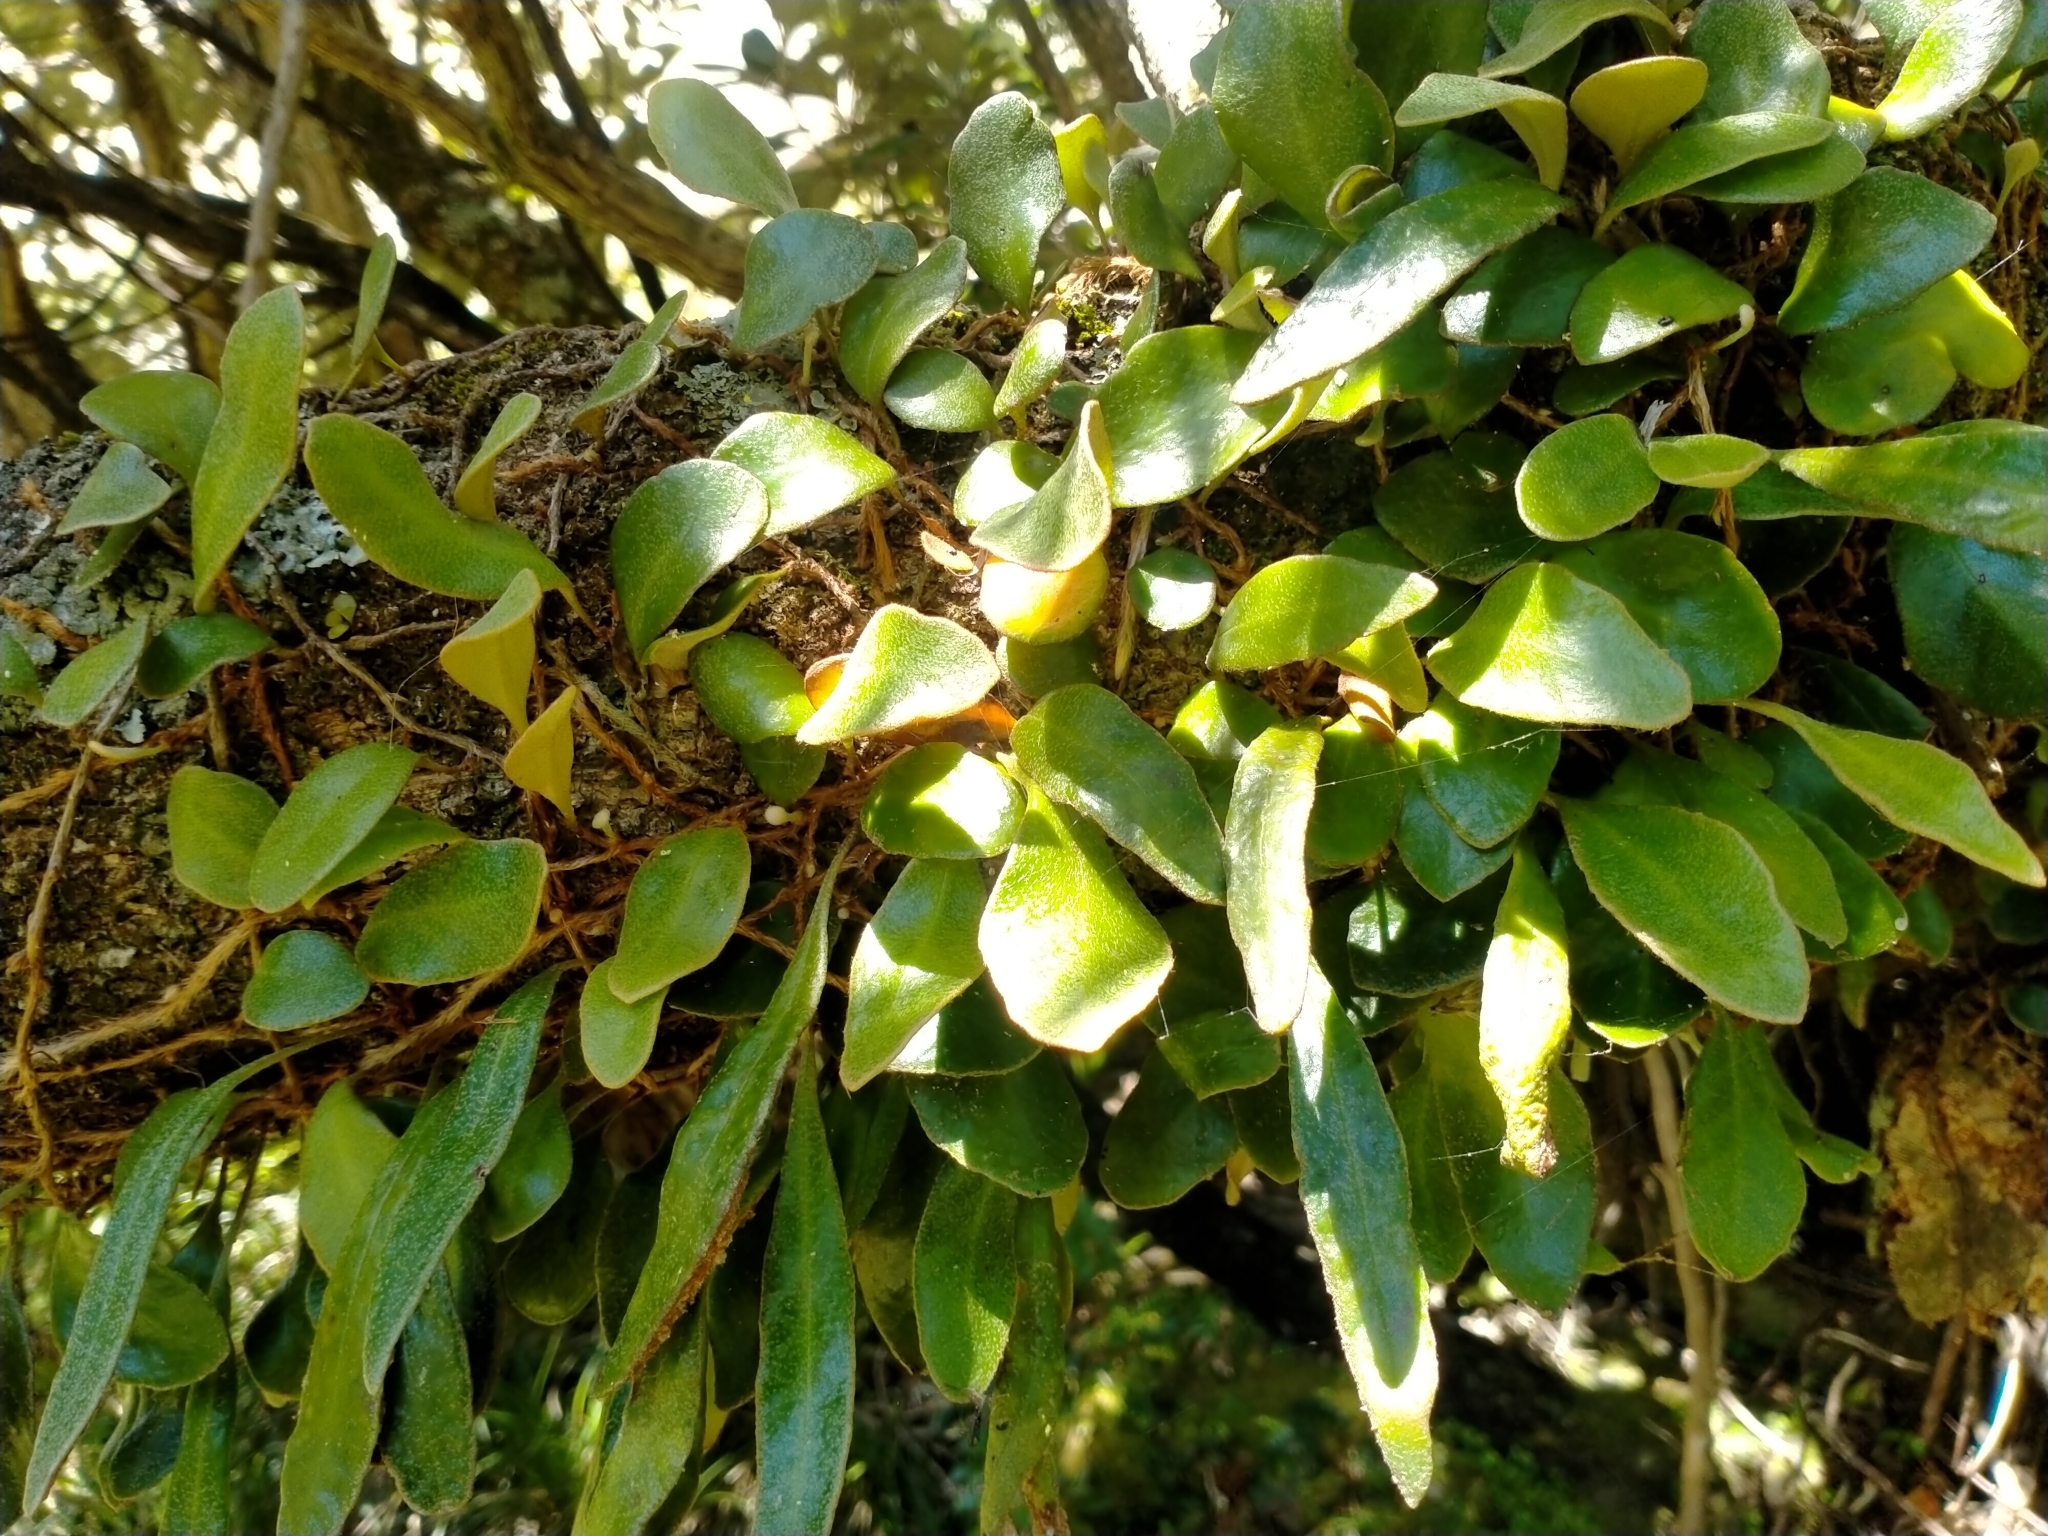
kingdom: Plantae
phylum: Tracheophyta
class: Polypodiopsida
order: Polypodiales
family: Polypodiaceae
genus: Pyrrosia
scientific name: Pyrrosia eleagnifolia
